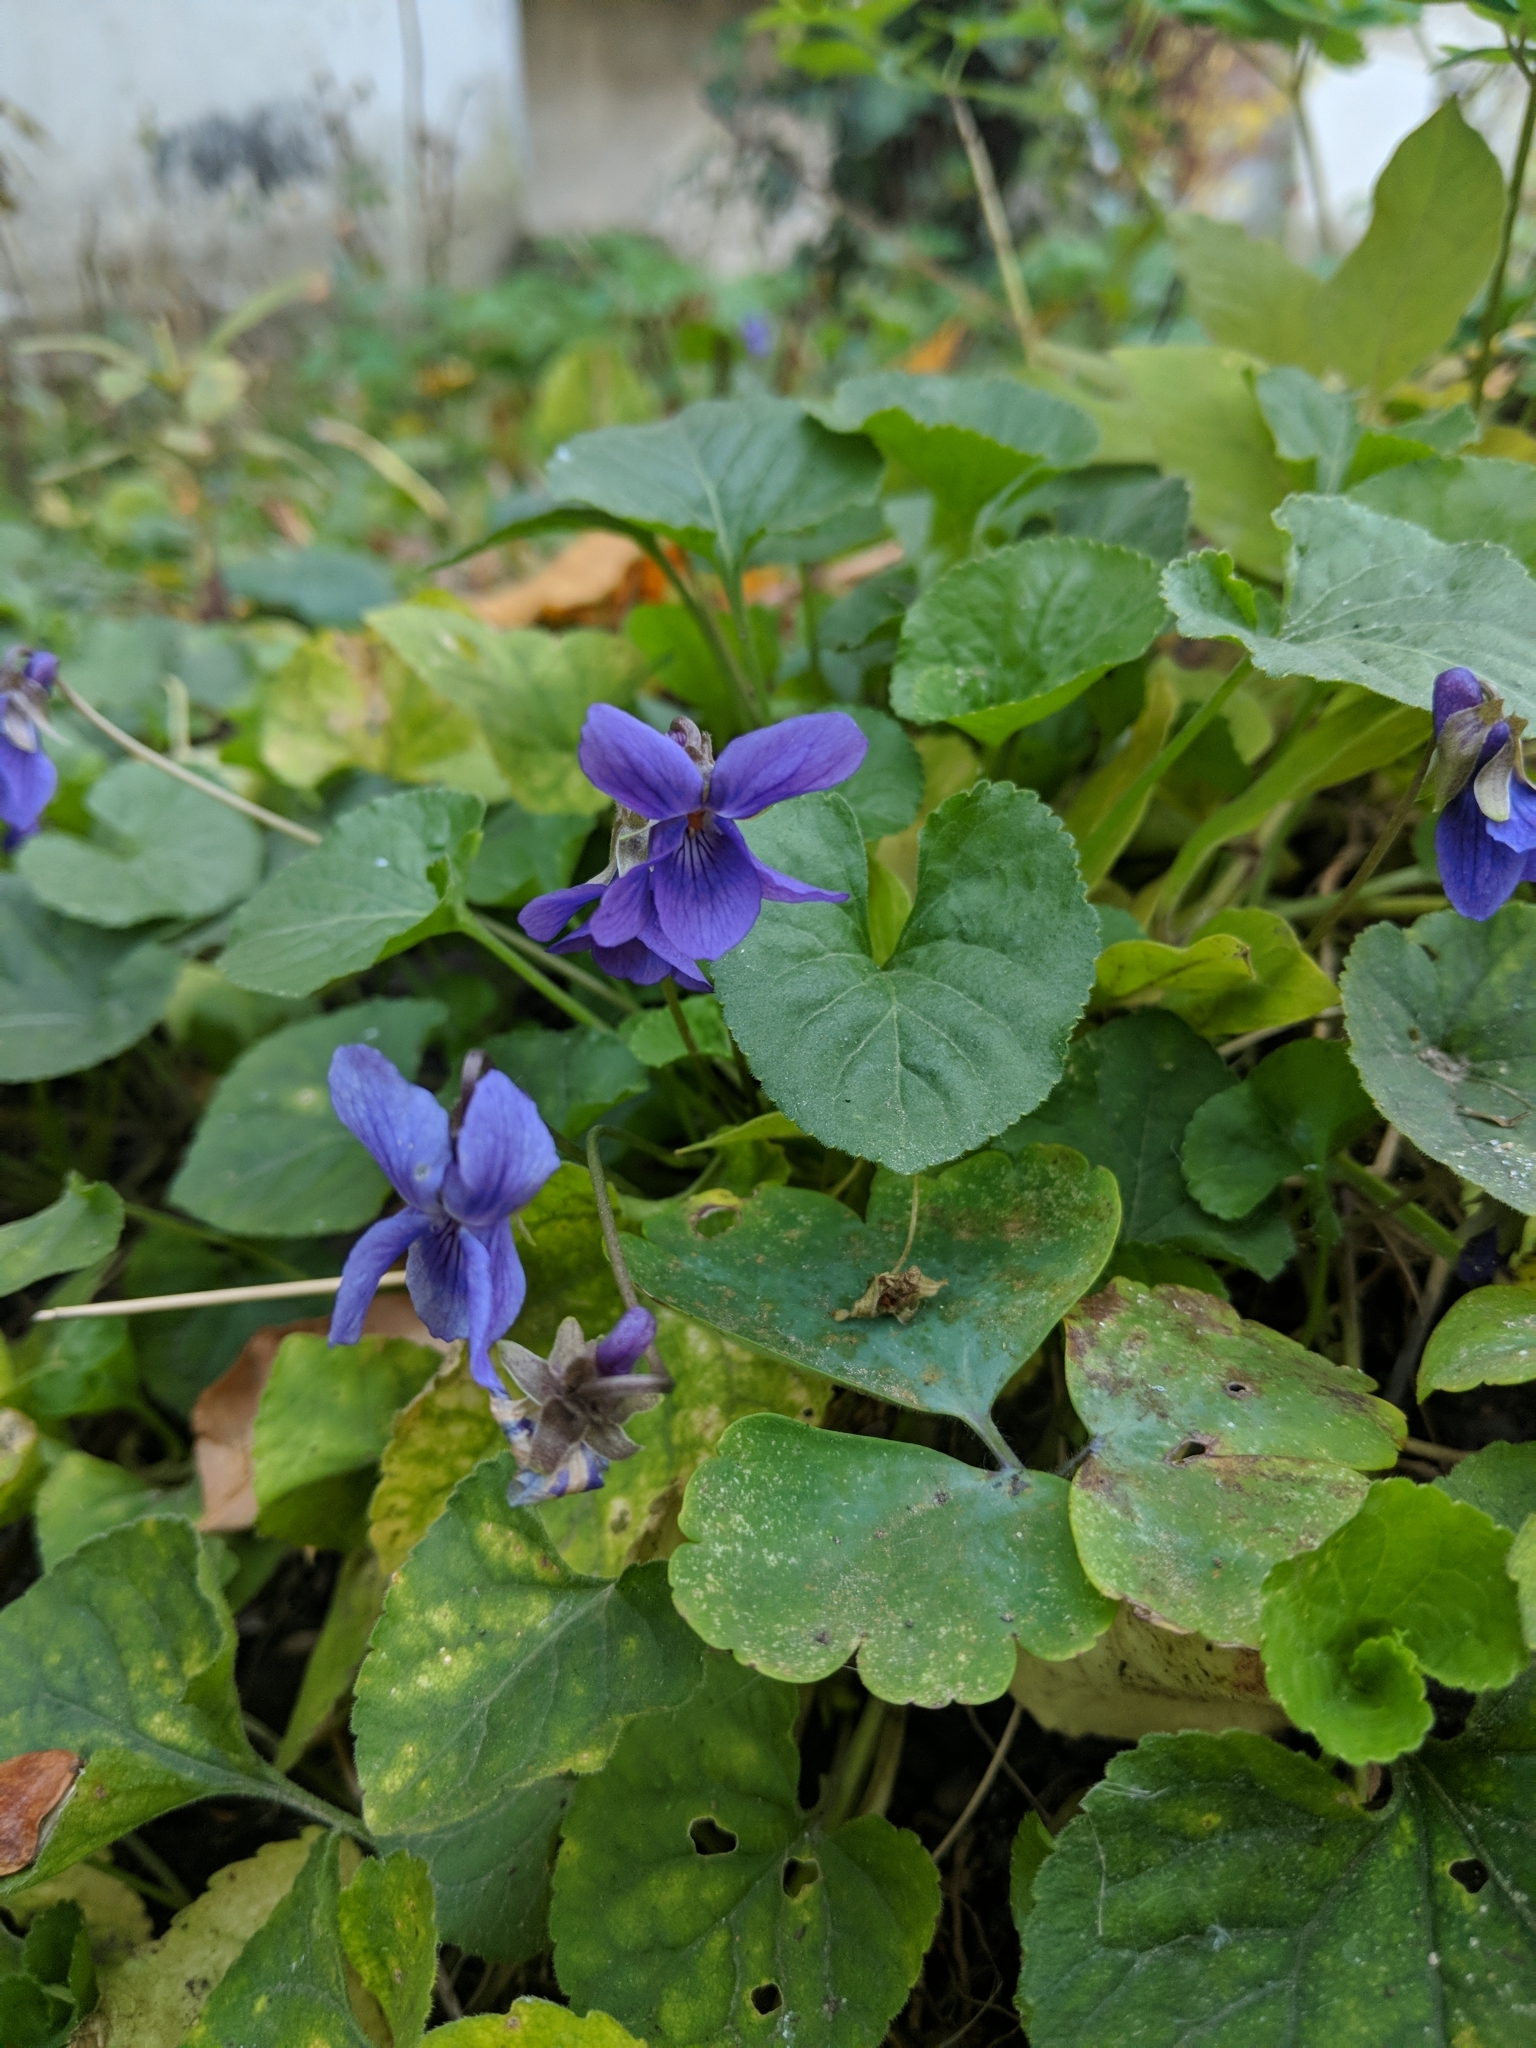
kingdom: Plantae
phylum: Tracheophyta
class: Magnoliopsida
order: Malpighiales
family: Violaceae
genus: Viola
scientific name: Viola odorata
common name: Sweet violet
